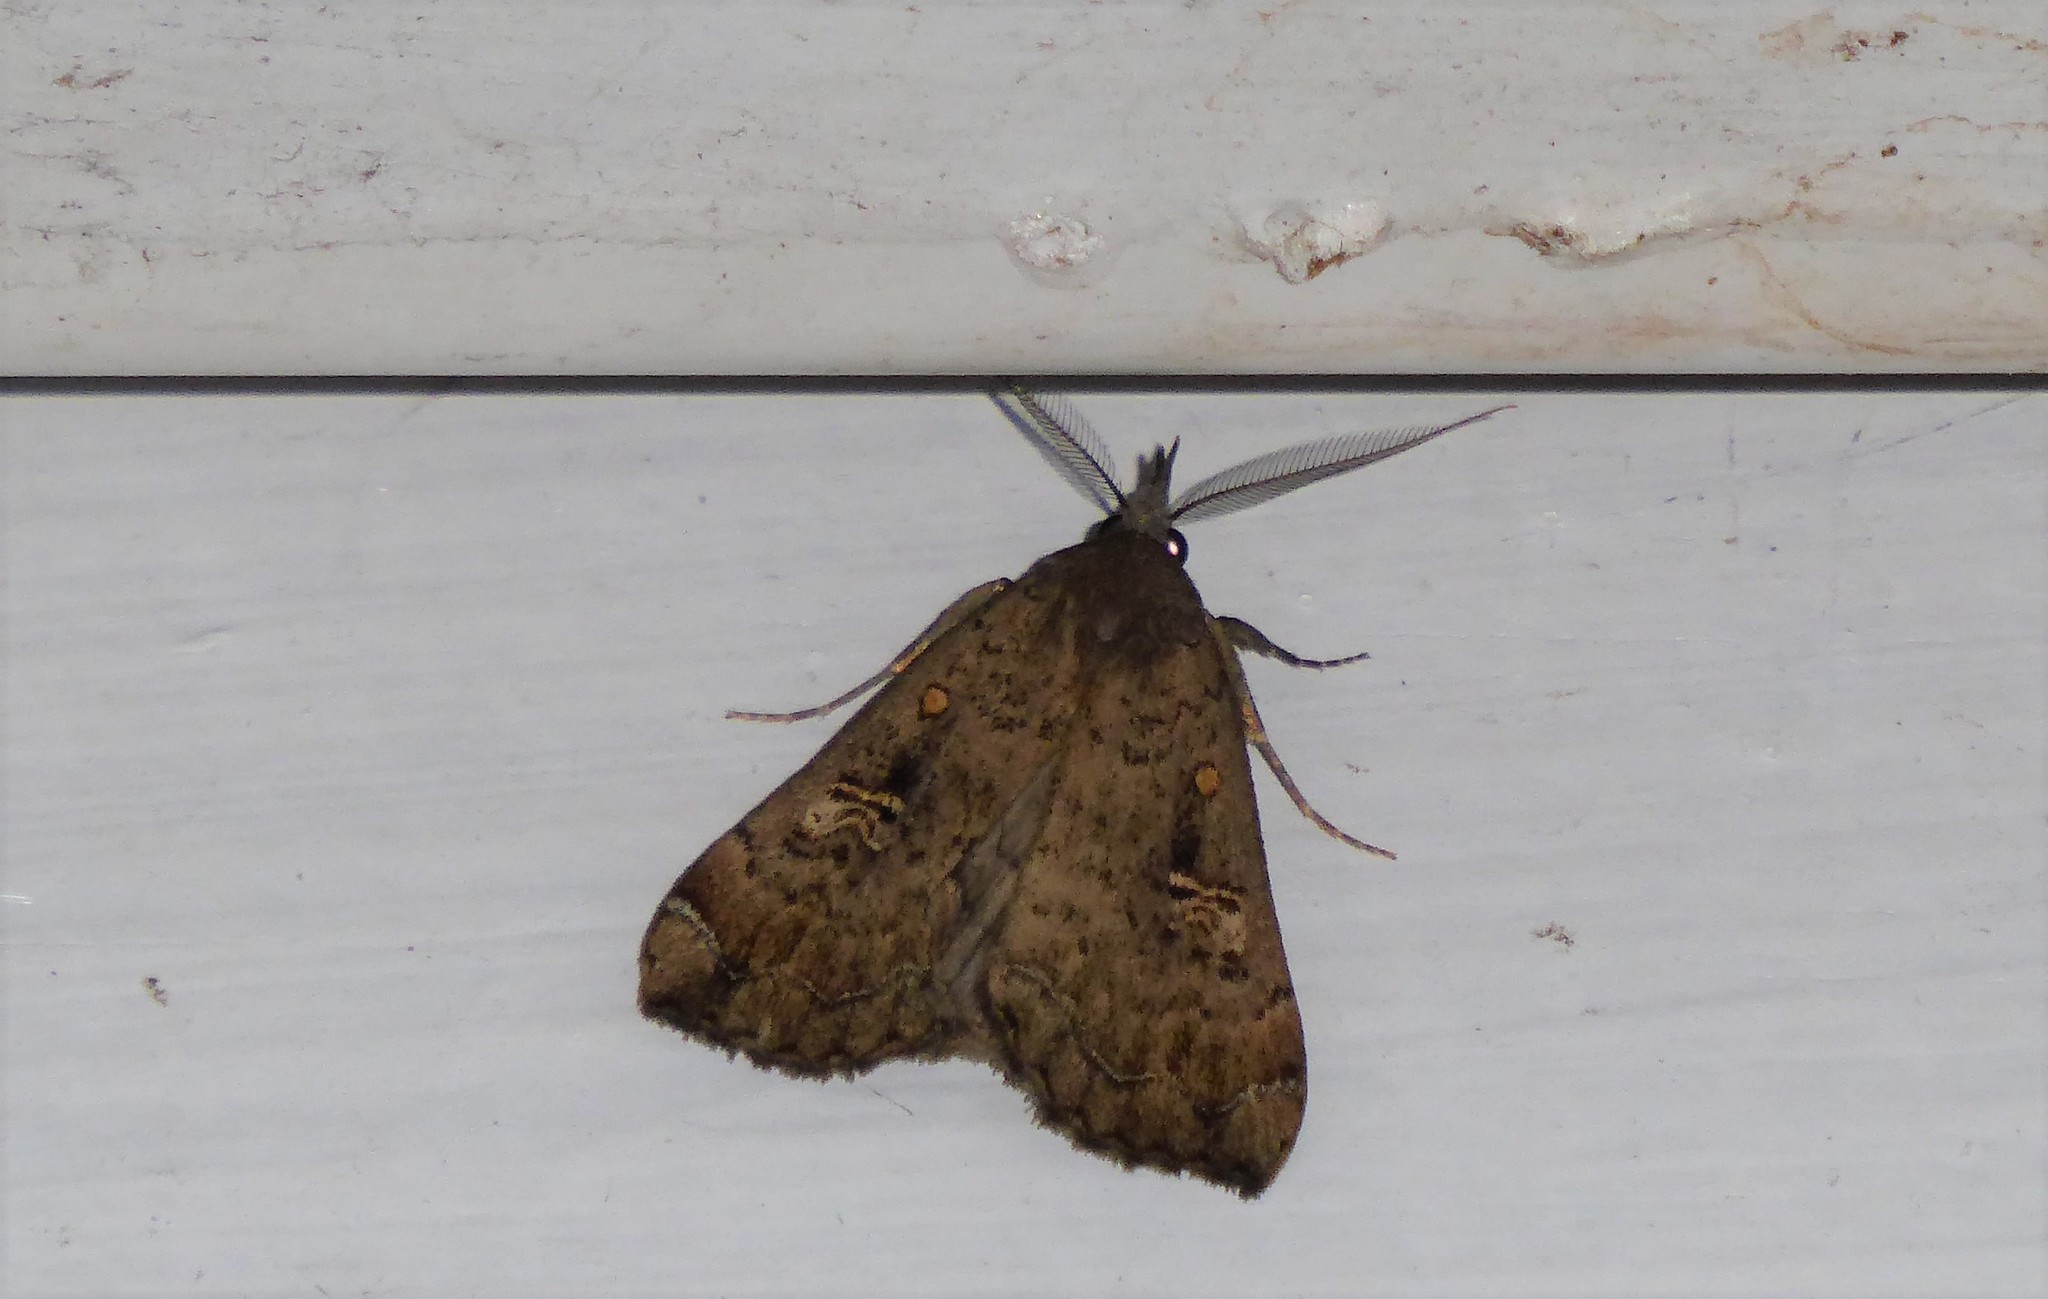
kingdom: Animalia
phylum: Arthropoda
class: Insecta
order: Lepidoptera
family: Erebidae
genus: Rhapsa
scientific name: Rhapsa scotosialis
